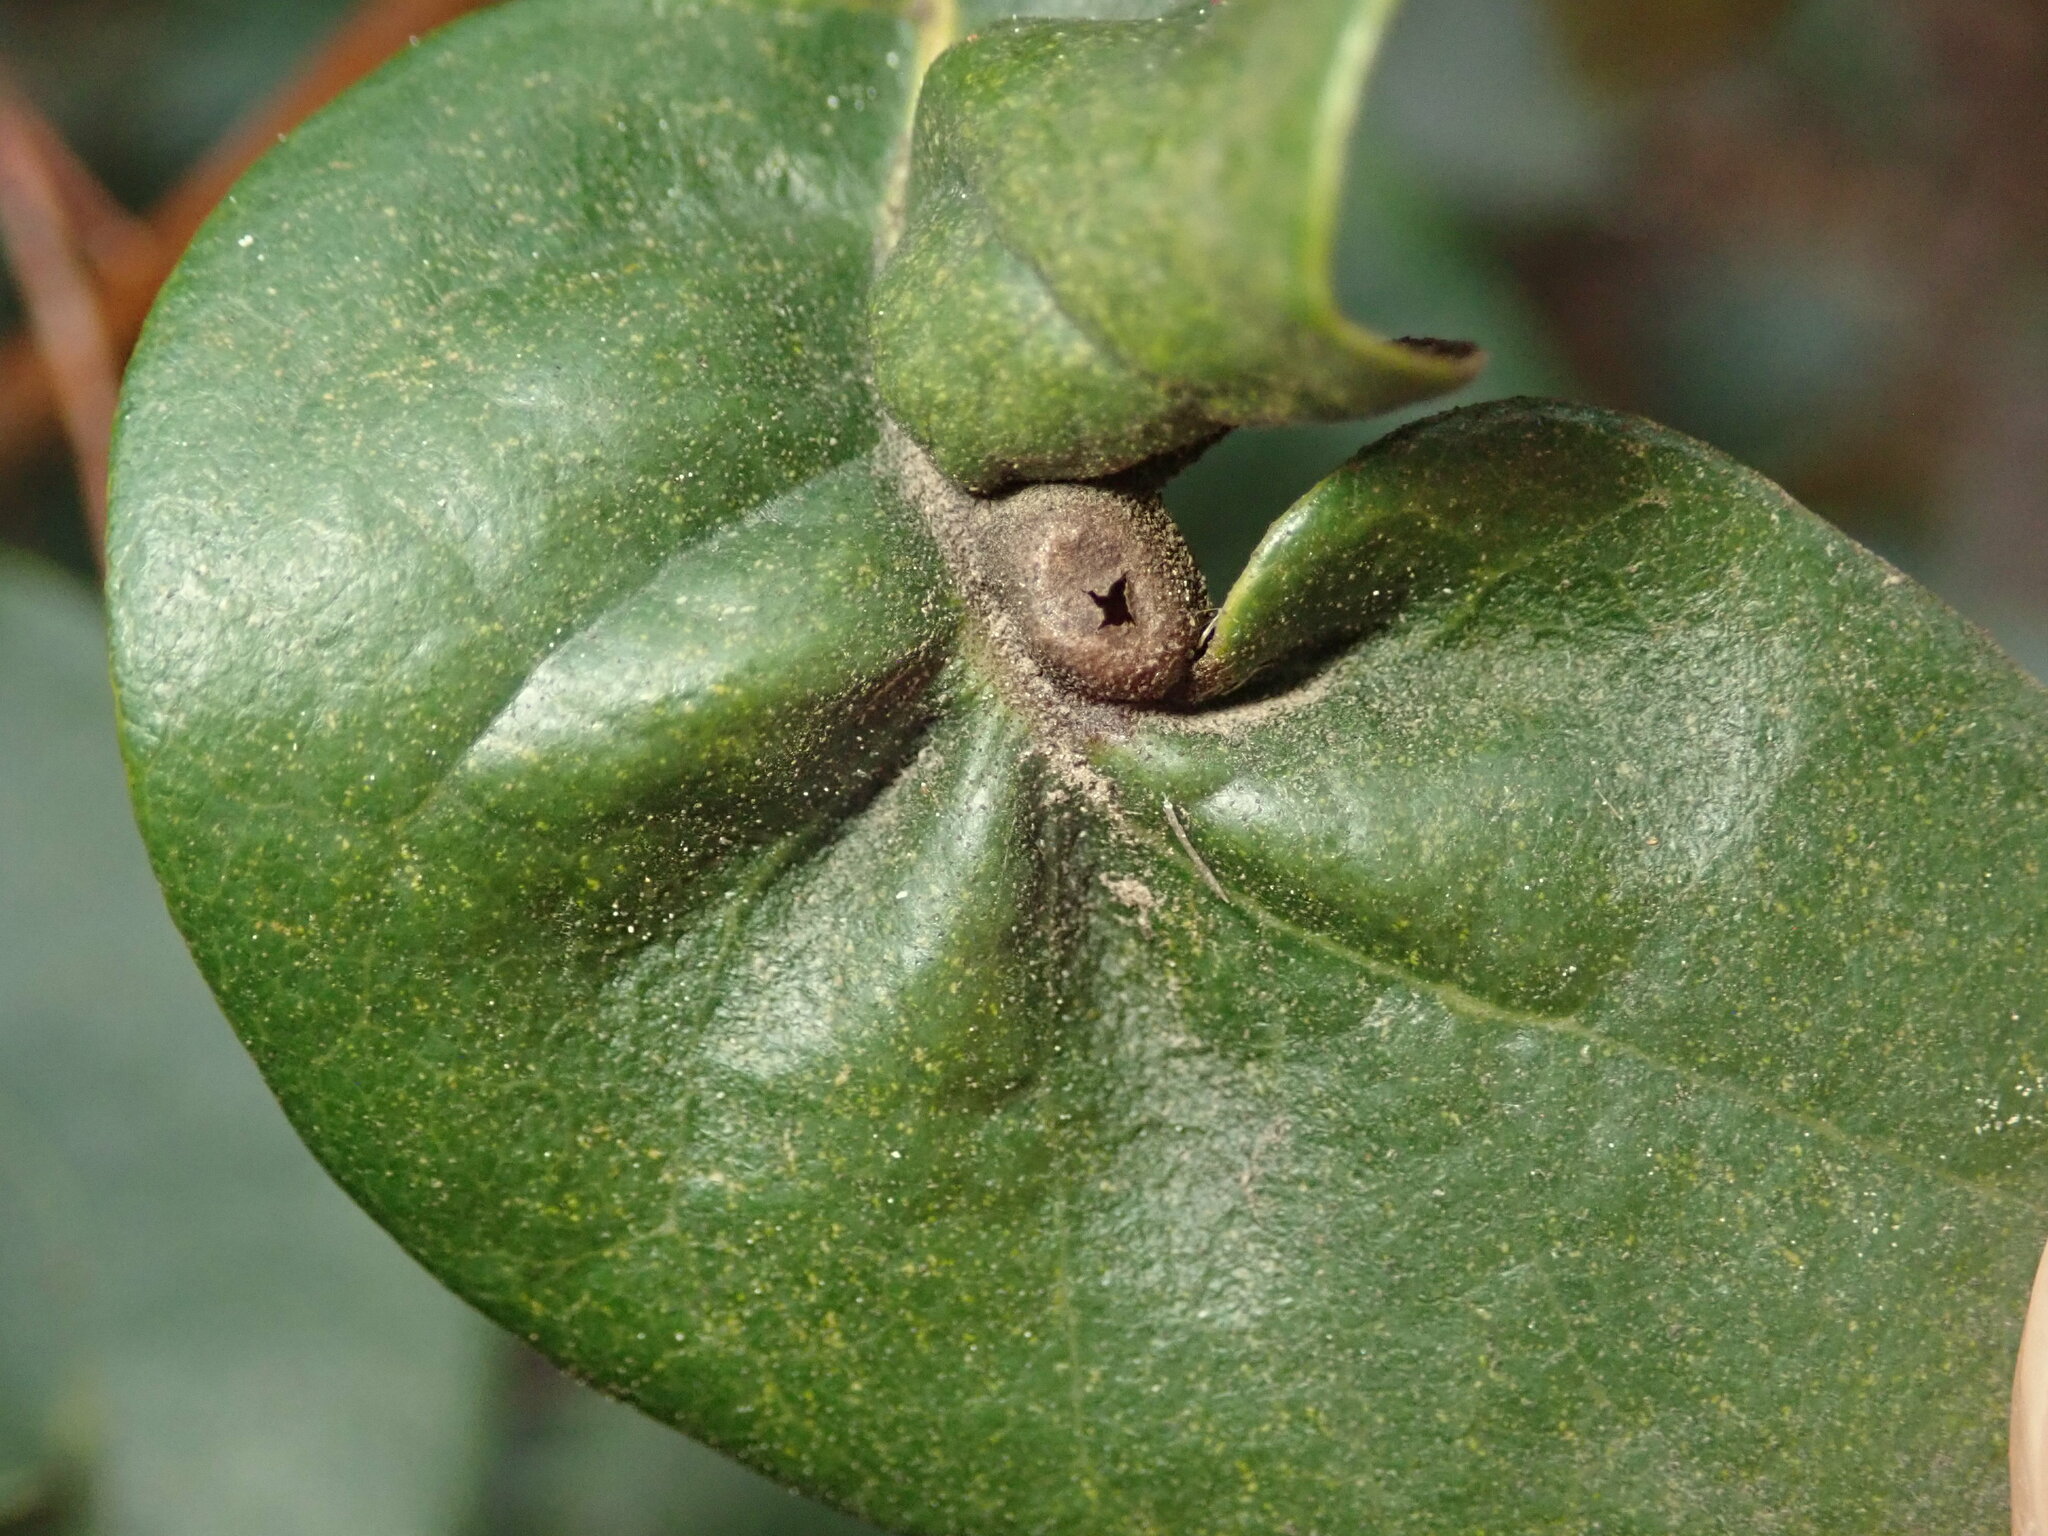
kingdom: Animalia
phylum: Arthropoda
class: Insecta
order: Hymenoptera
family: Cynipidae
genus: Dryocosmus
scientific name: Dryocosmus juliae
